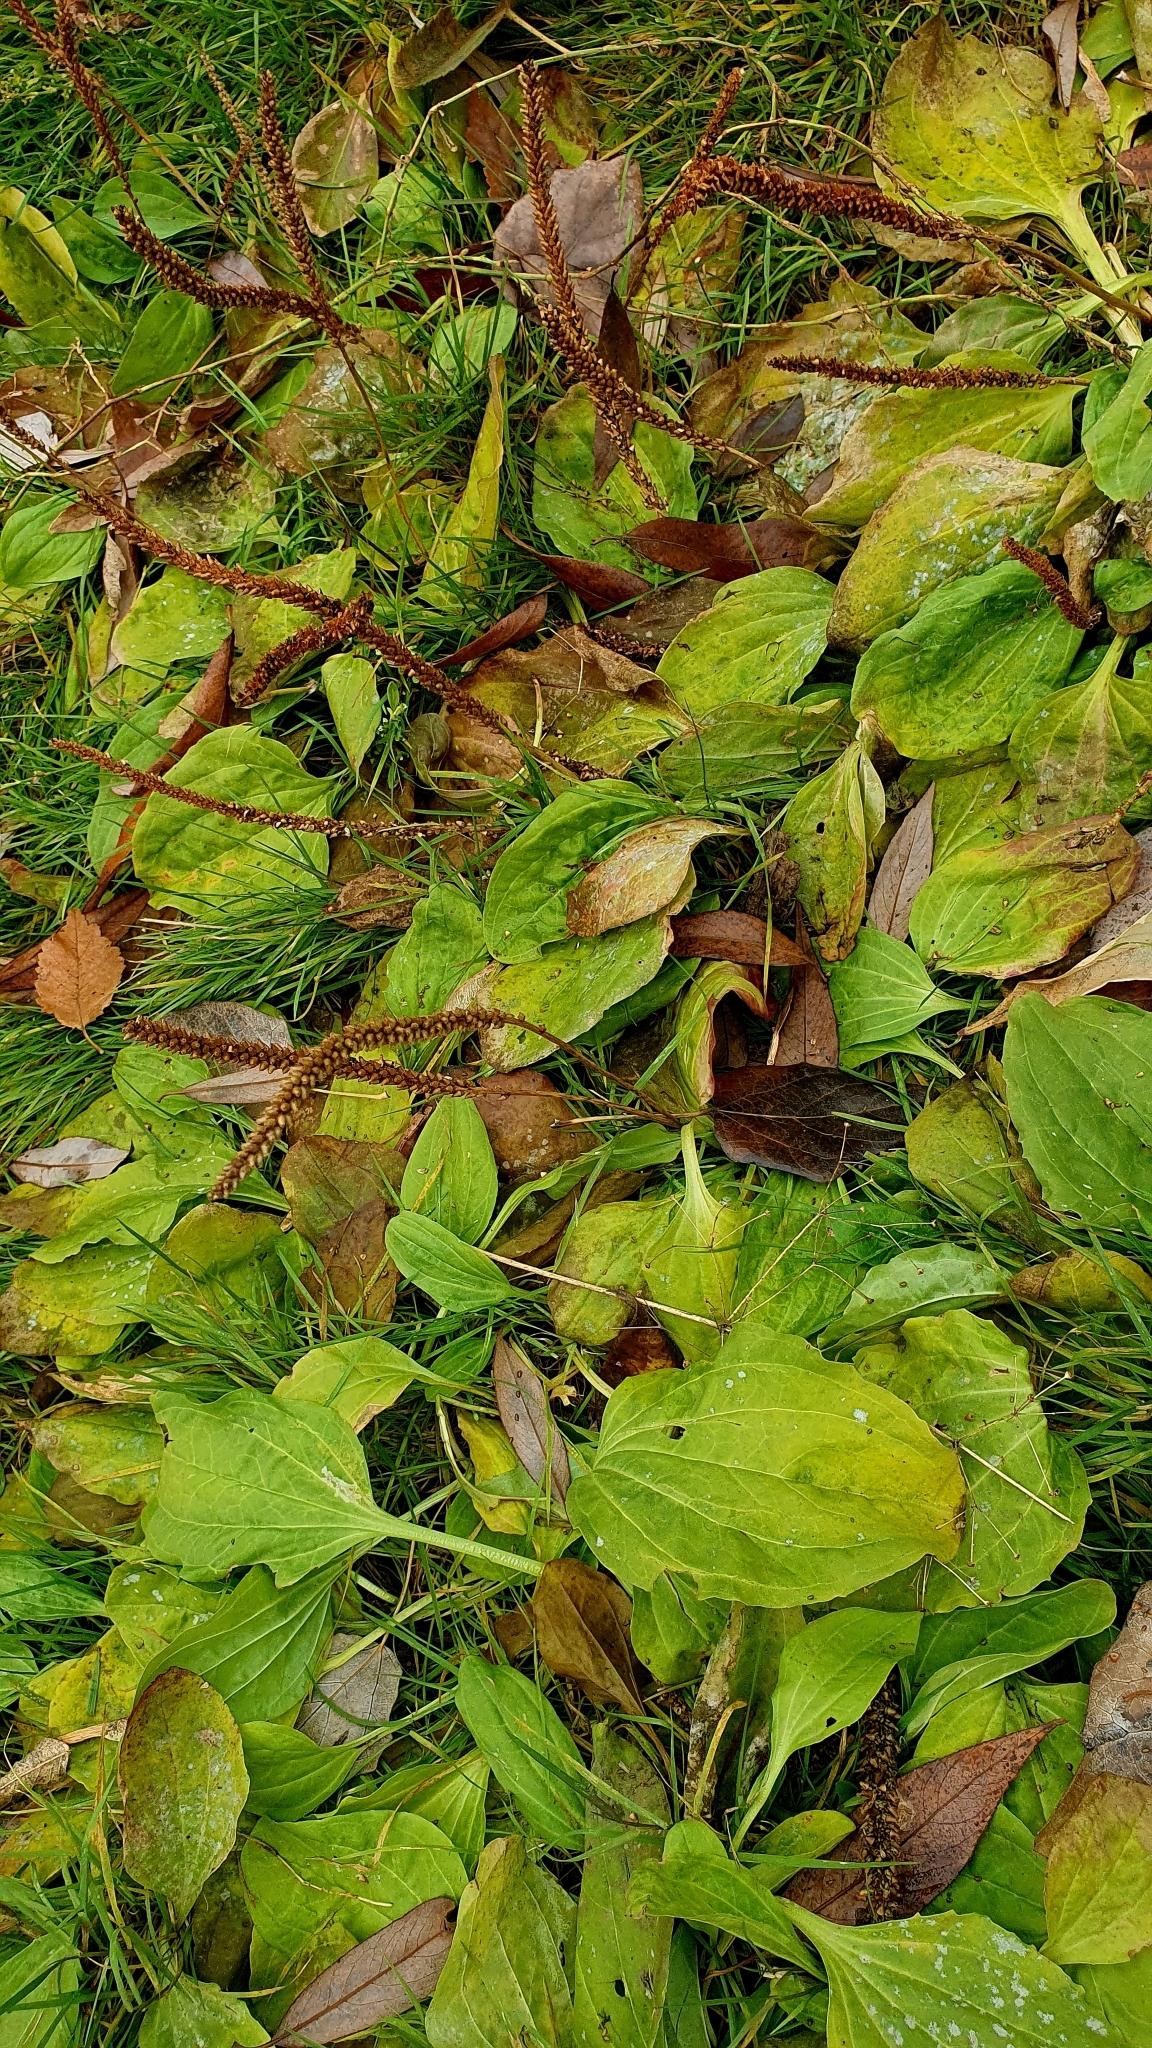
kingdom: Plantae
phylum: Tracheophyta
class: Magnoliopsida
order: Lamiales
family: Plantaginaceae
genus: Plantago
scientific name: Plantago major
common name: Common plantain
